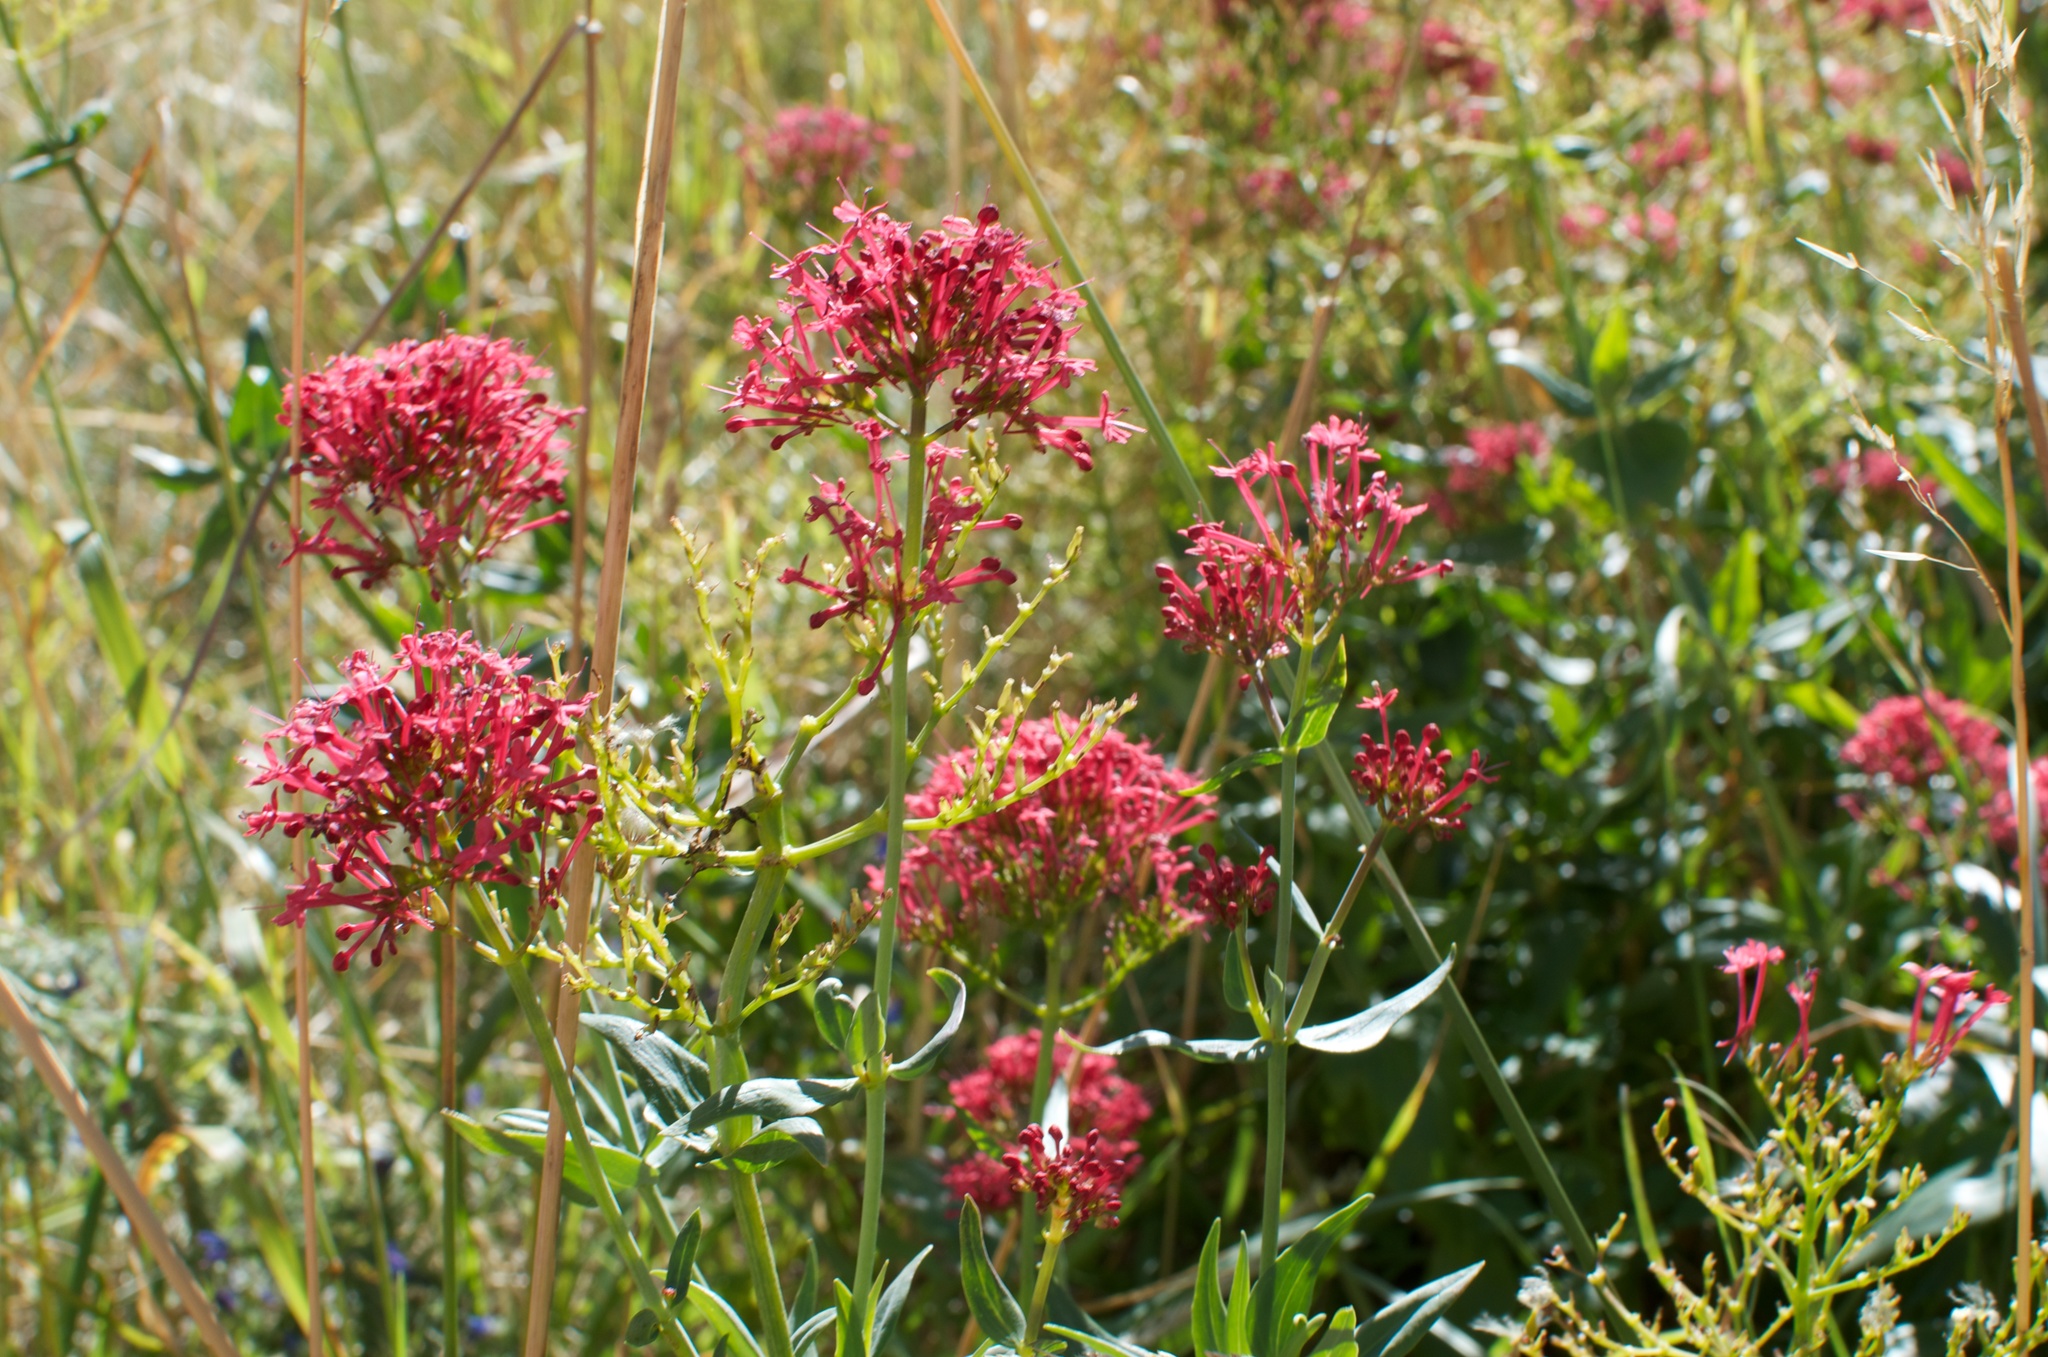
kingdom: Plantae
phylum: Tracheophyta
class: Magnoliopsida
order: Dipsacales
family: Caprifoliaceae
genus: Centranthus
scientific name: Centranthus ruber
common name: Red valerian
